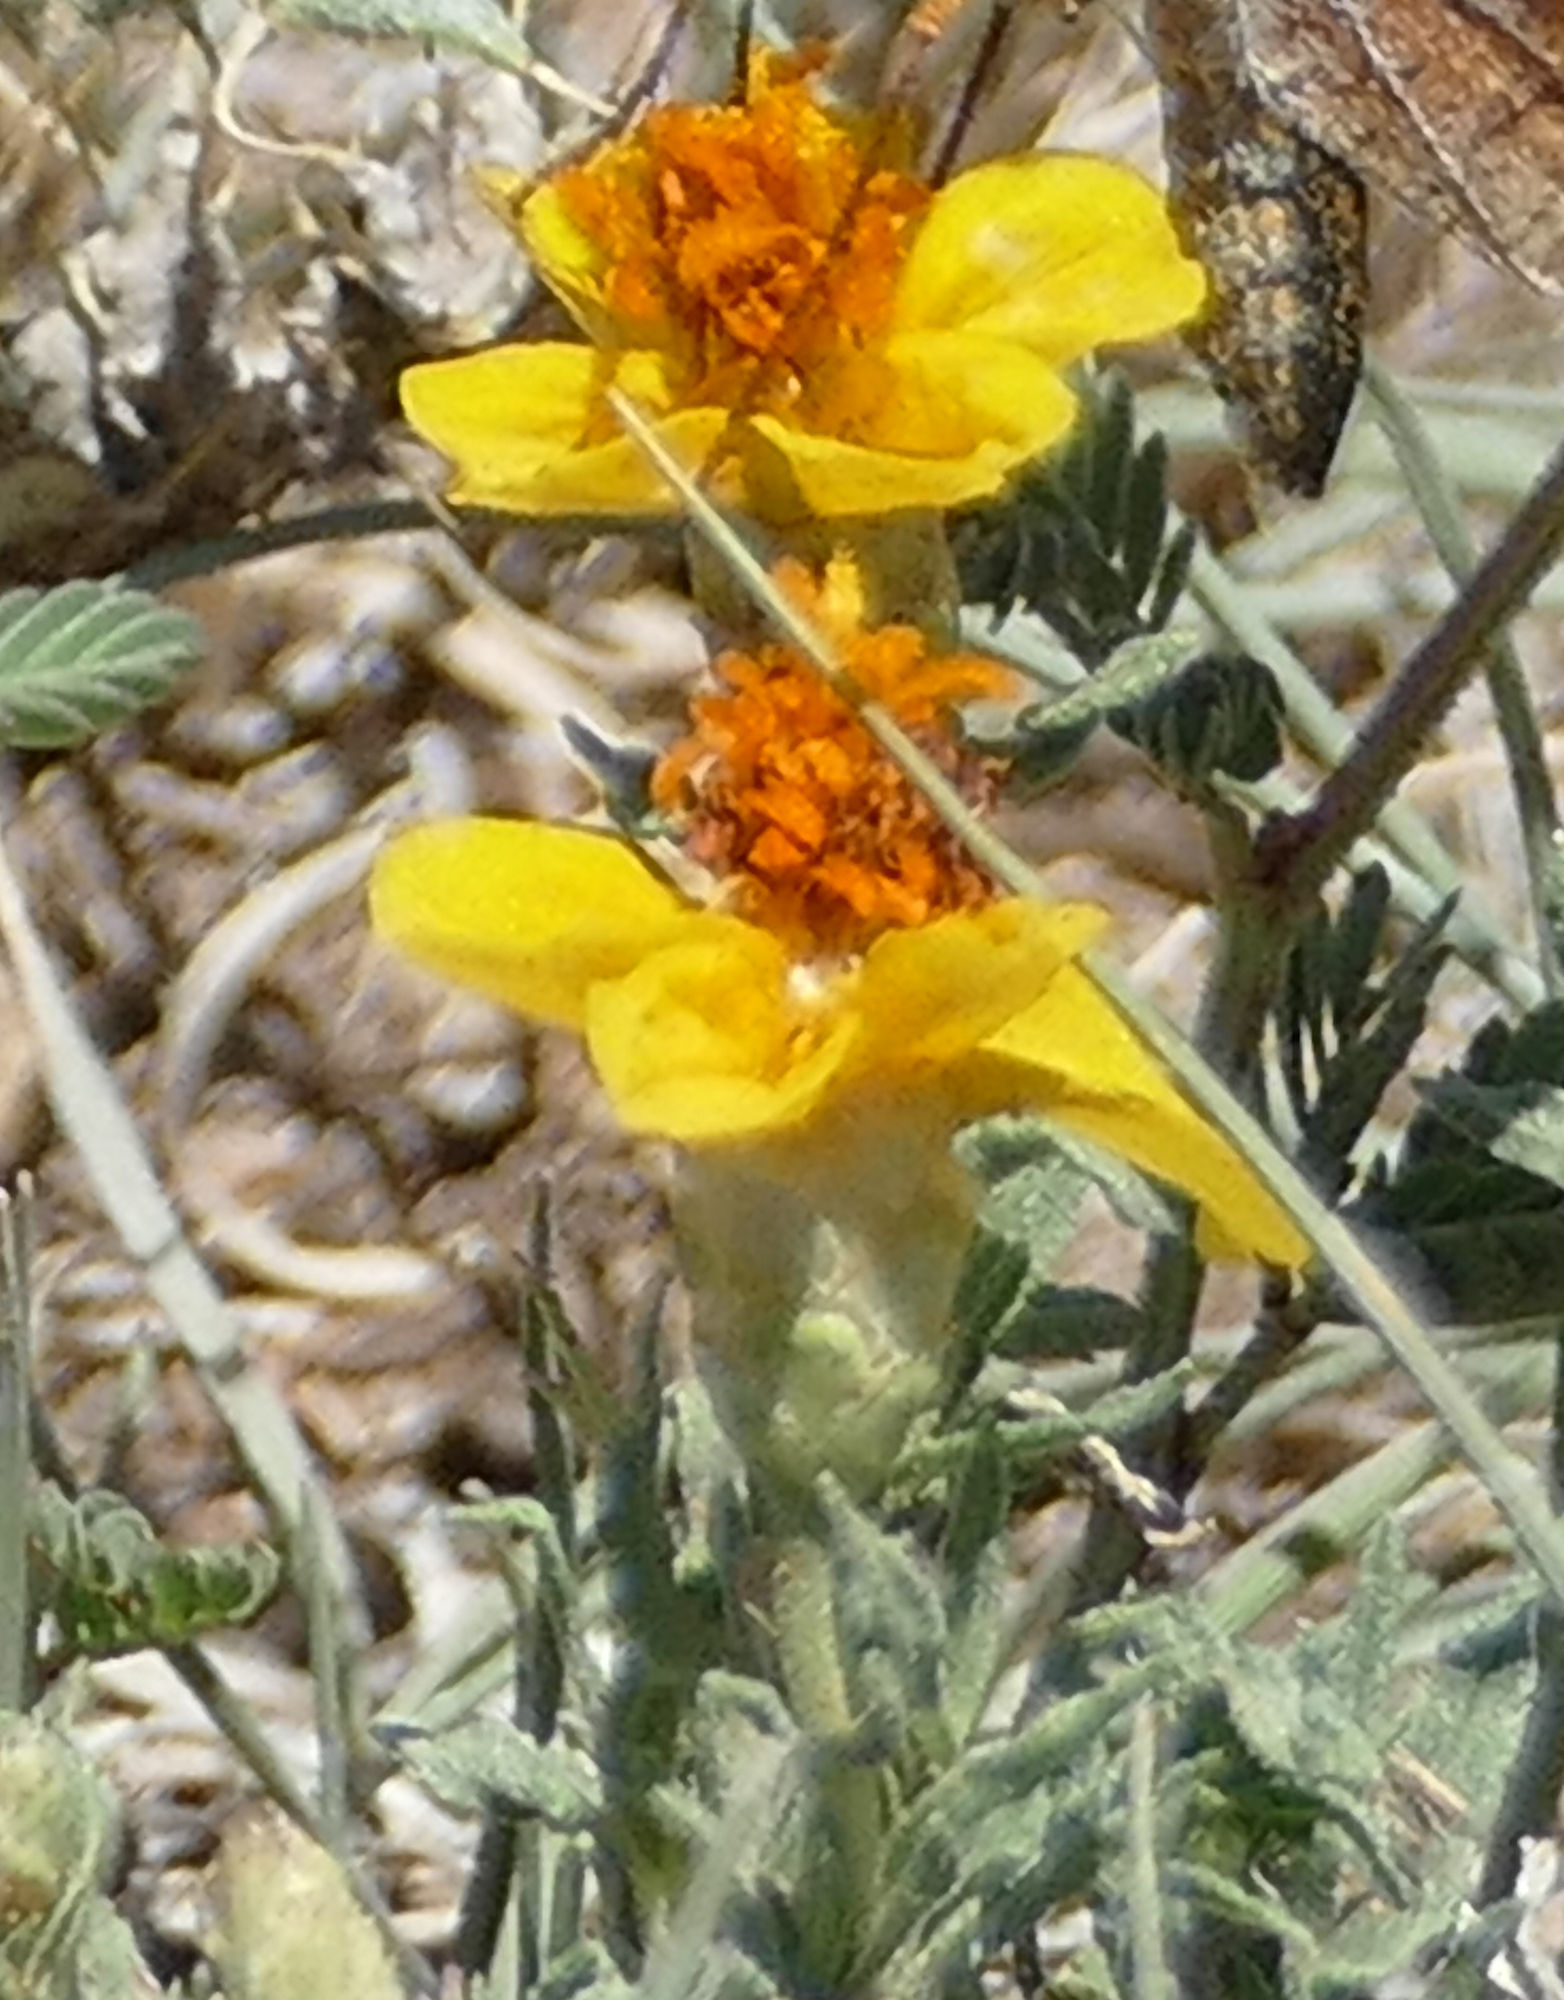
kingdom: Plantae
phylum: Tracheophyta
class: Magnoliopsida
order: Asterales
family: Asteraceae
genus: Zinnia
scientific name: Zinnia grandiflora
